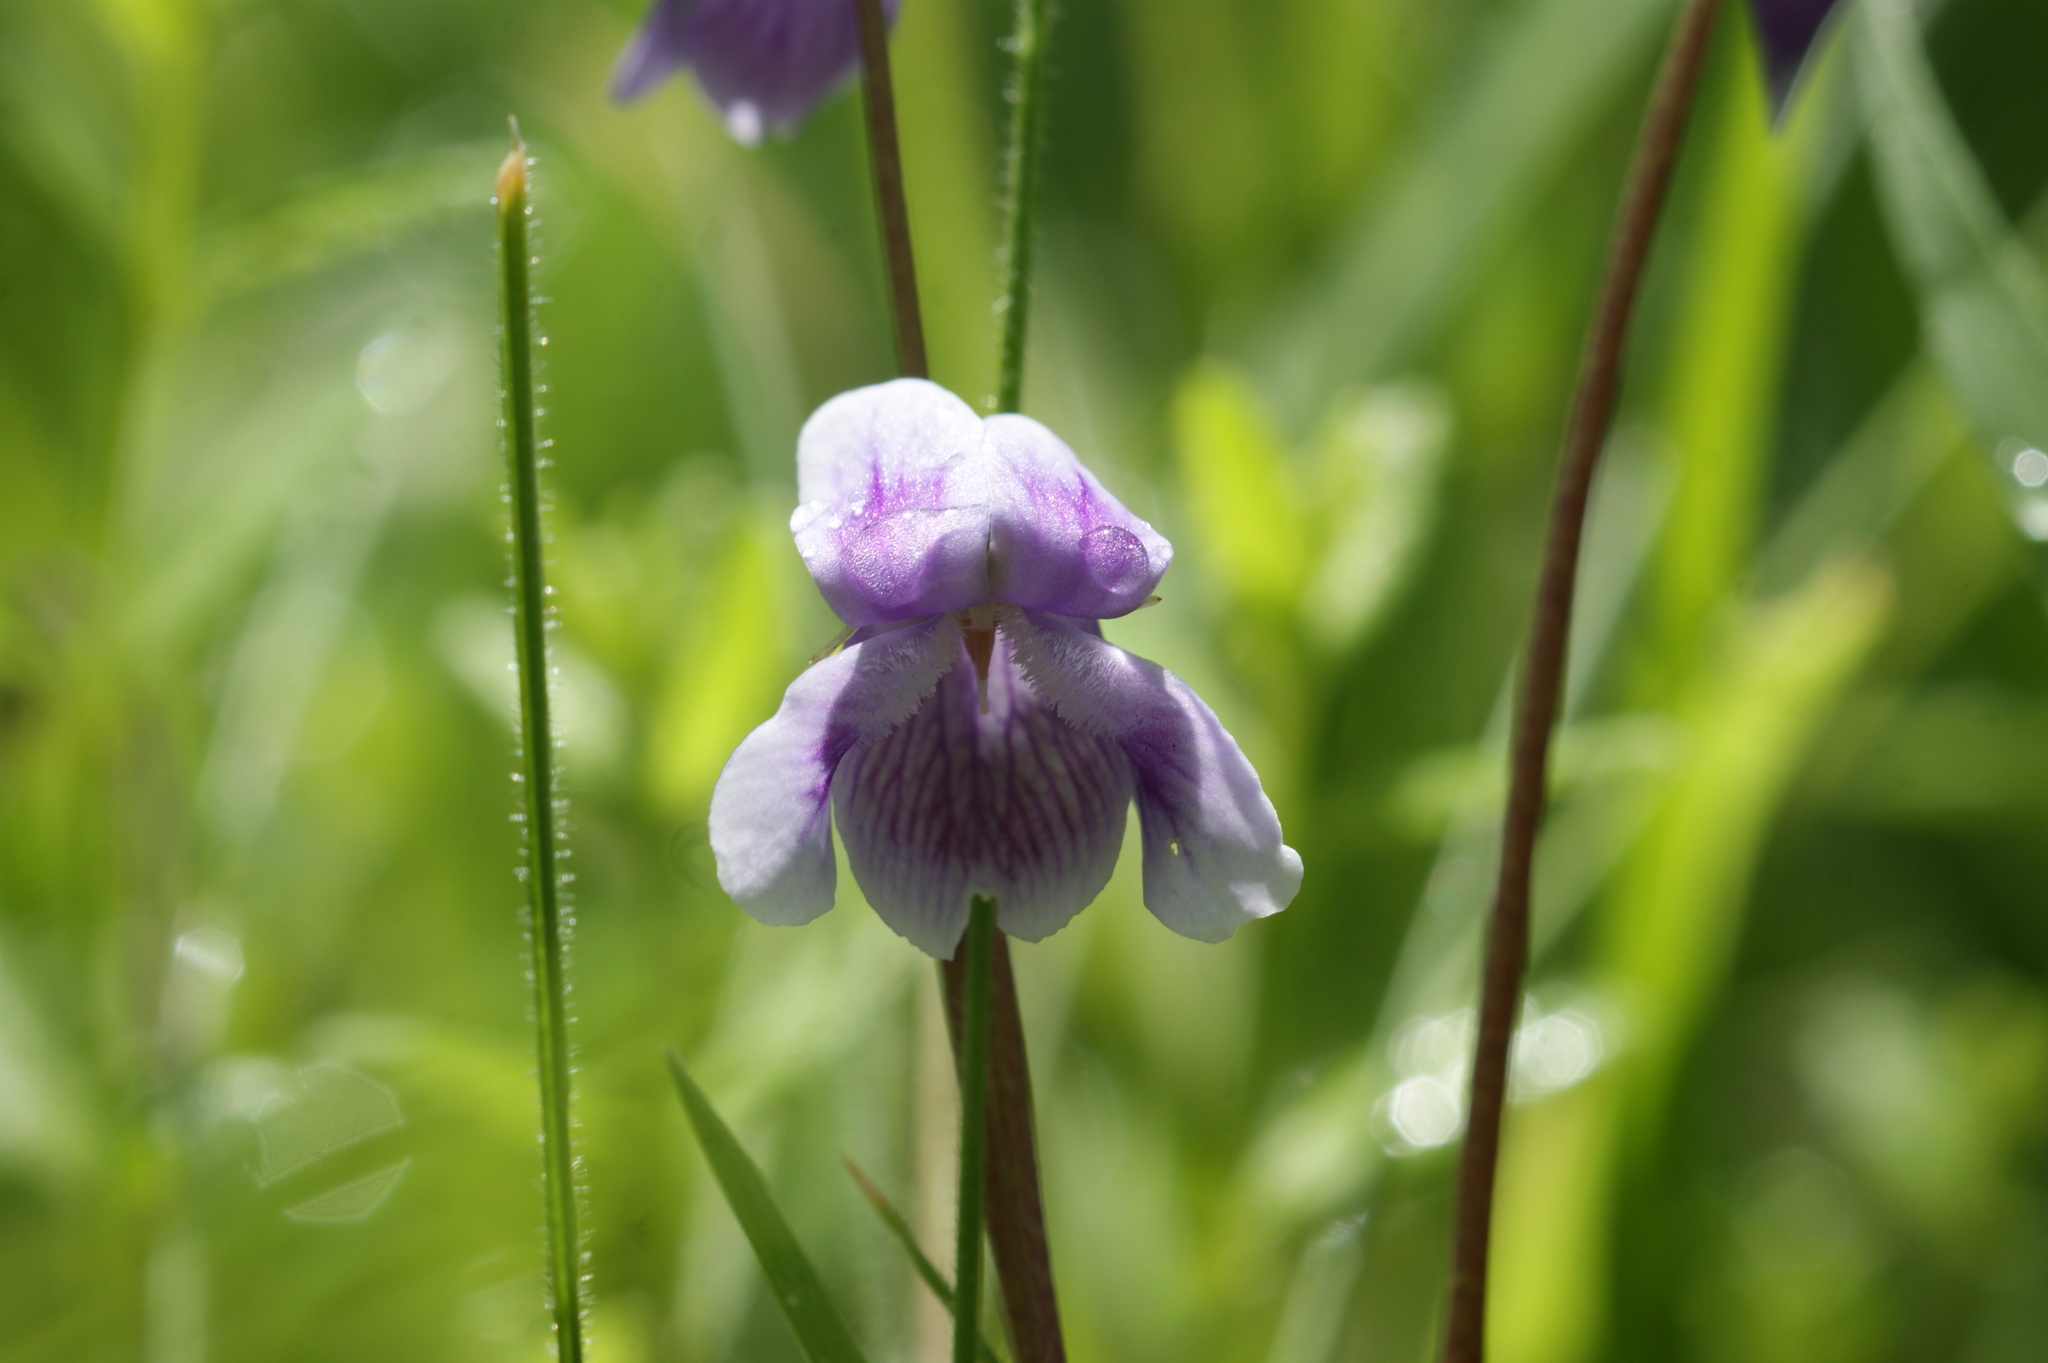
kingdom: Plantae
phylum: Tracheophyta
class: Magnoliopsida
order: Malpighiales
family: Violaceae
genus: Viola
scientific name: Viola hederacea
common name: Australian violet
